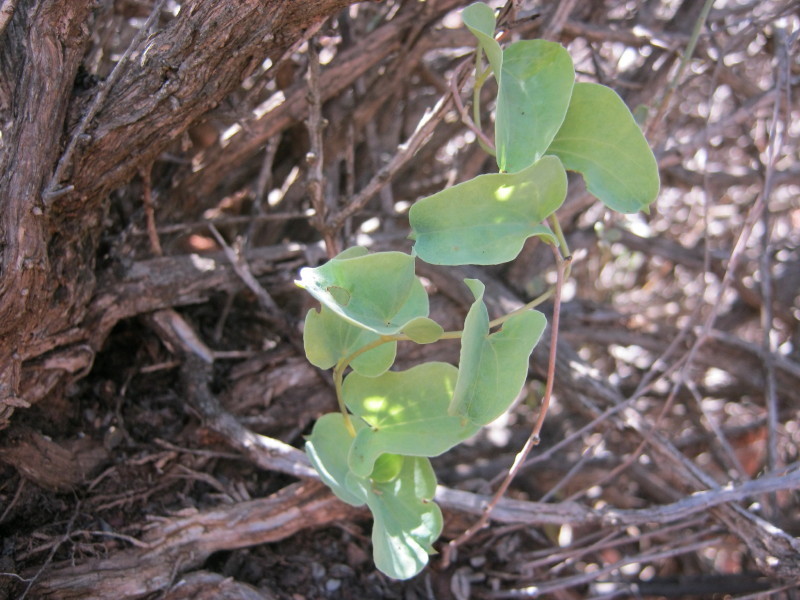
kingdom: Plantae
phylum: Tracheophyta
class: Liliopsida
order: Dioscoreales
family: Dioscoreaceae
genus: Dioscorea
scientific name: Dioscorea hemicrypta
